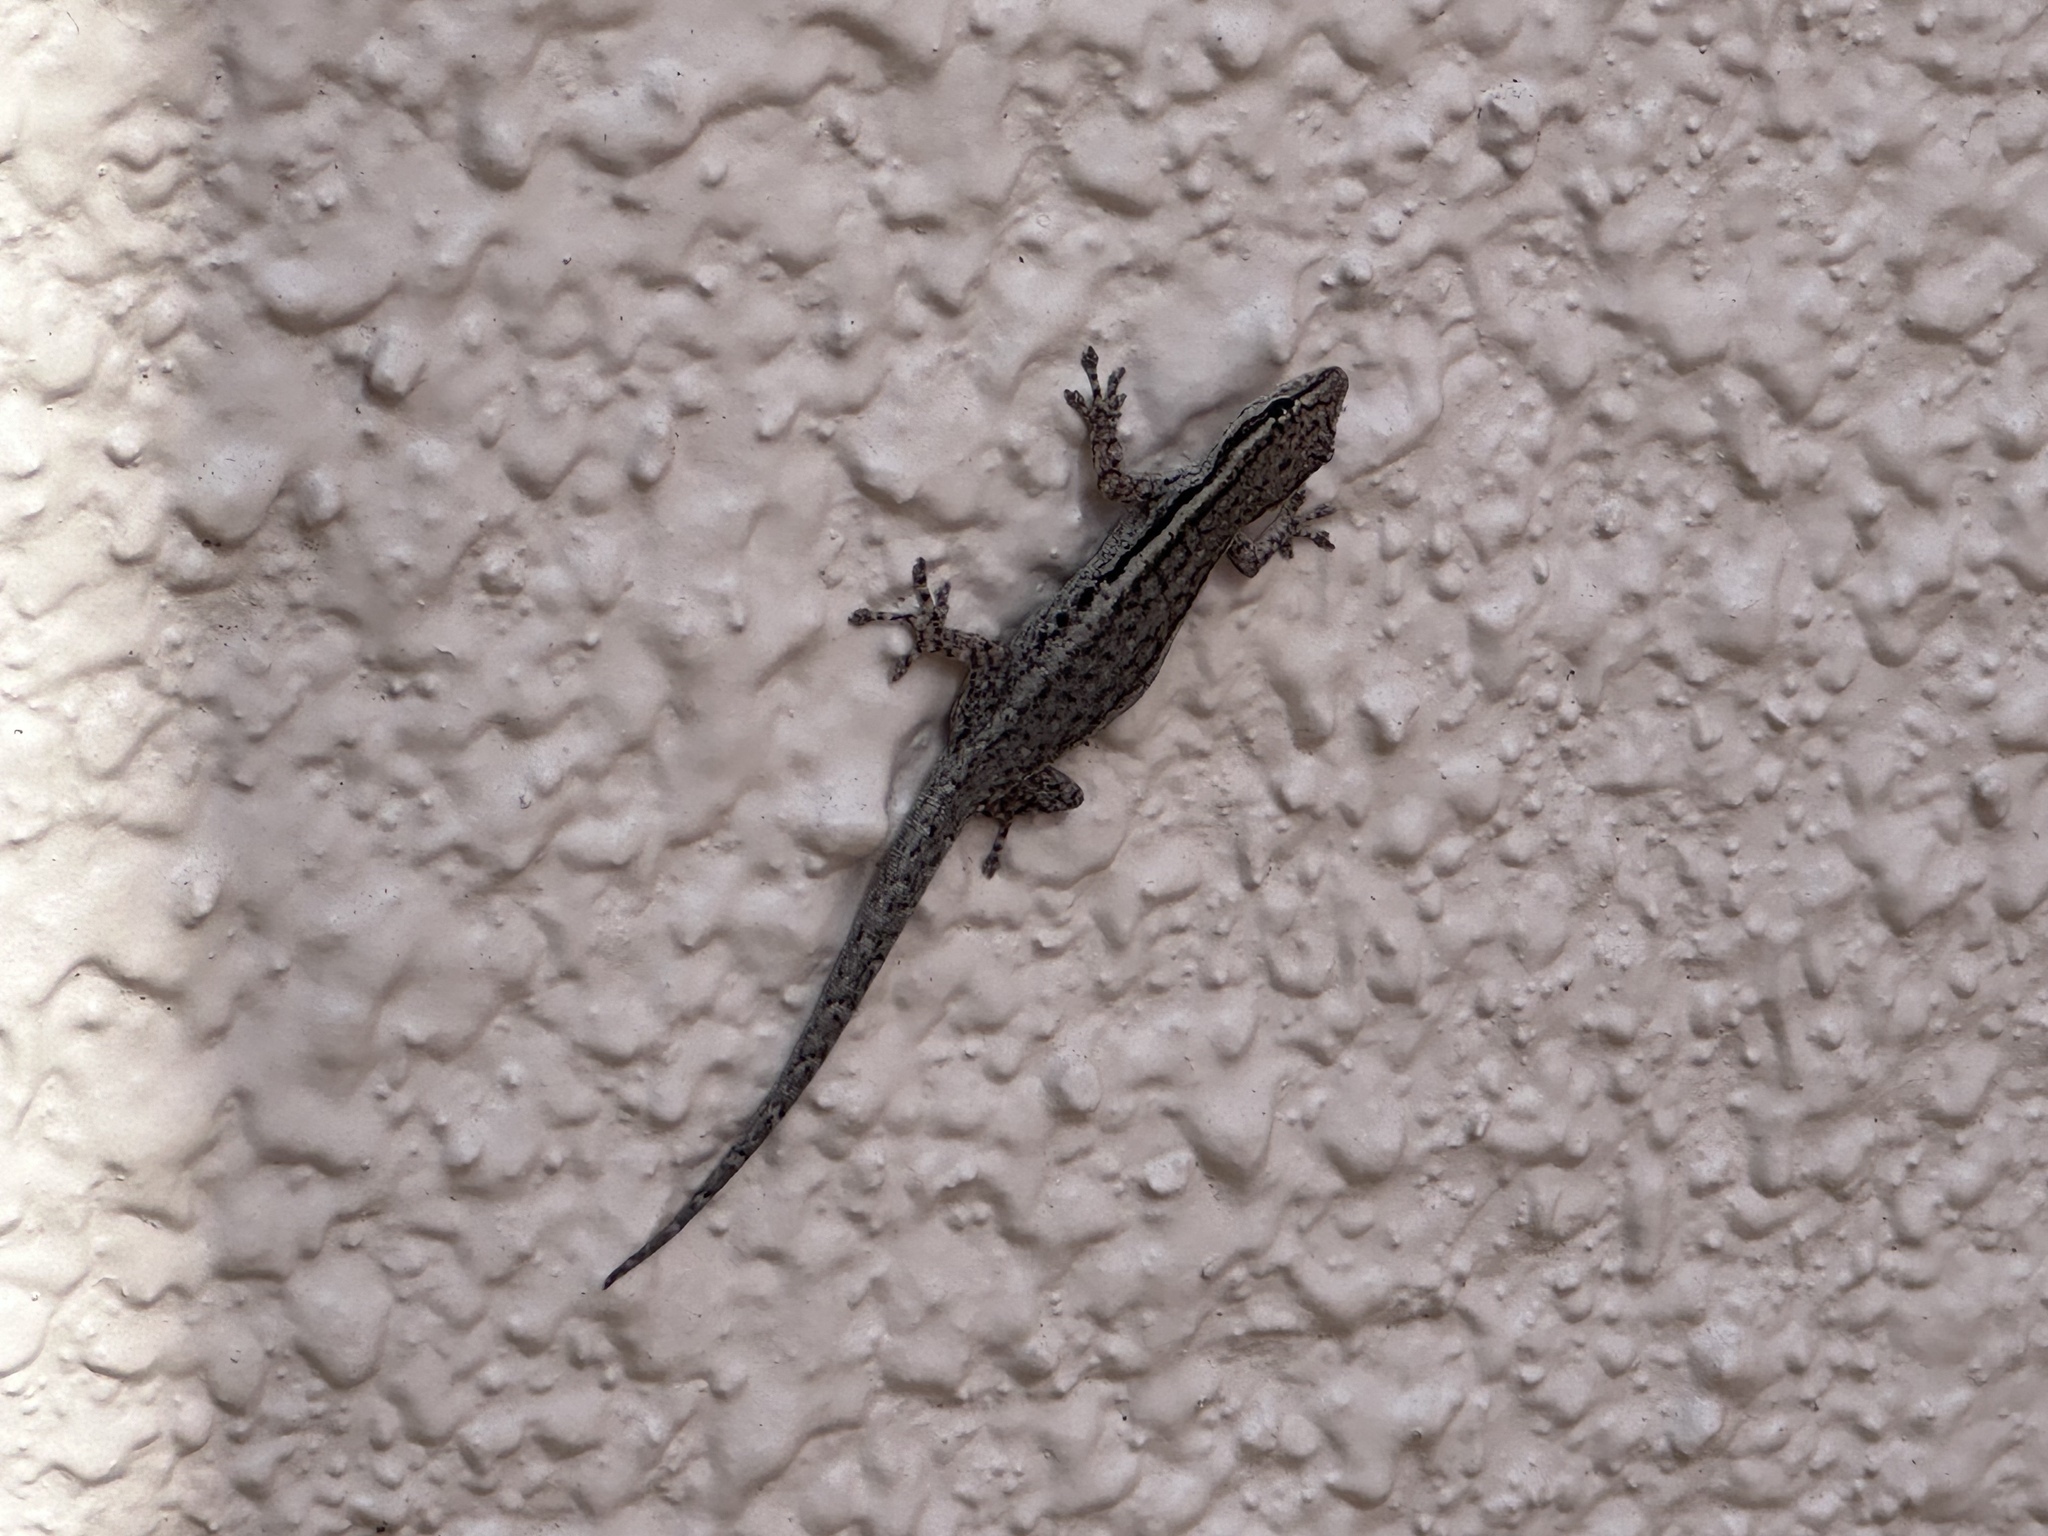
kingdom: Animalia
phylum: Chordata
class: Squamata
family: Gekkonidae
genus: Lygodactylus
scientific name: Lygodactylus capensis
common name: Cape dwarf gecko
